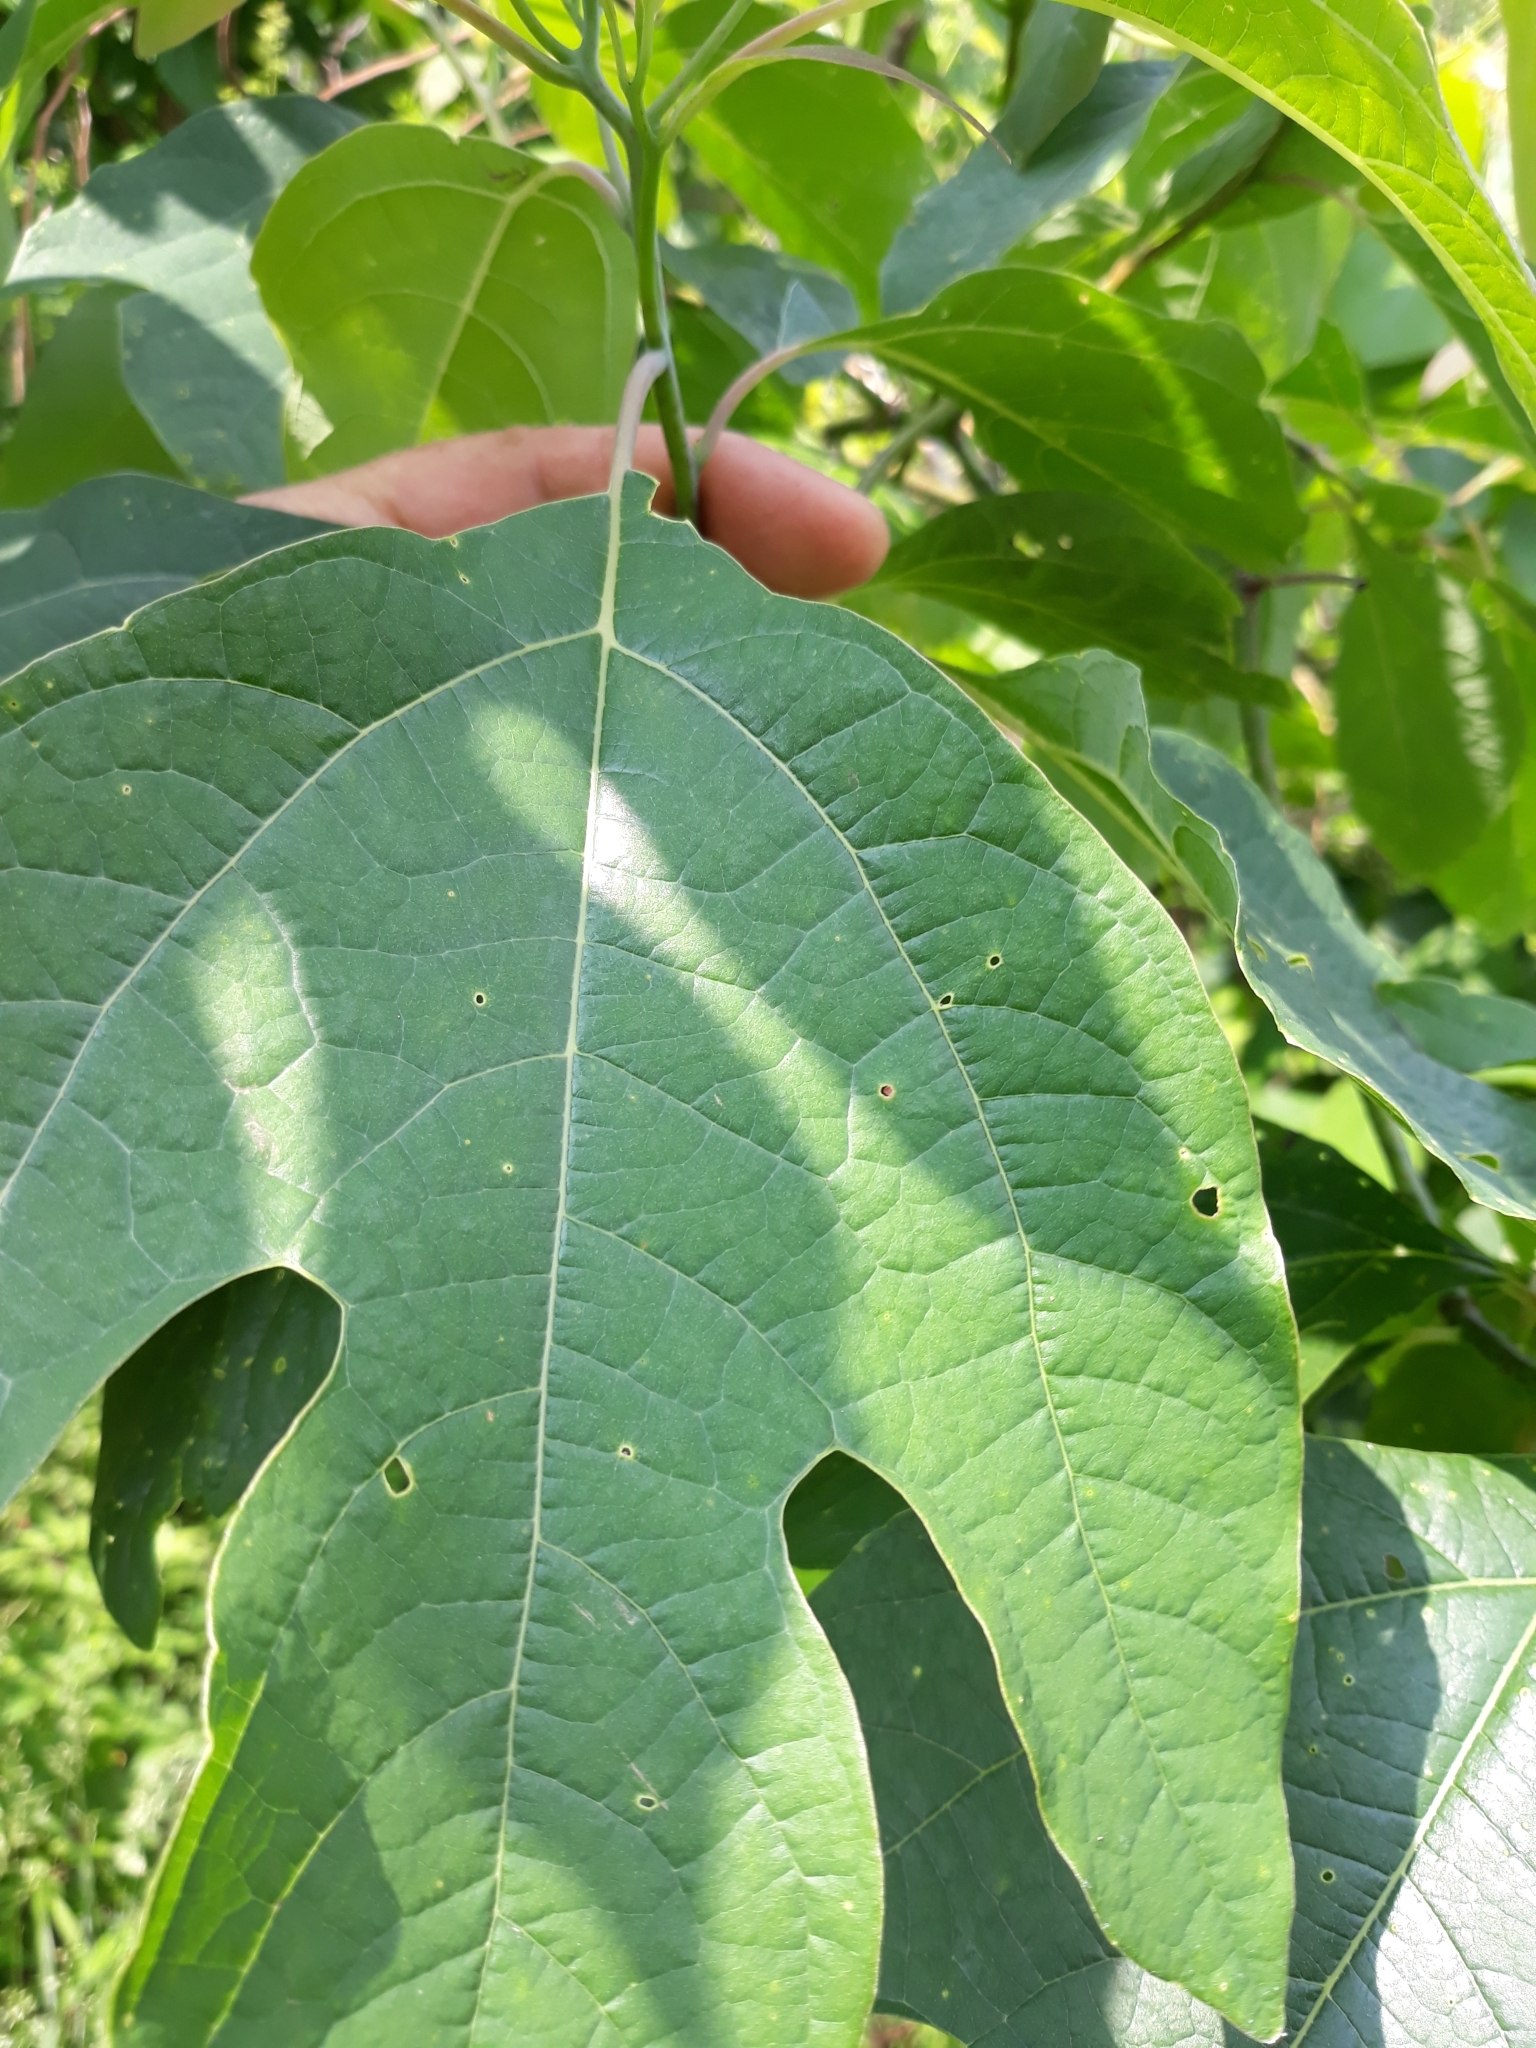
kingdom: Plantae
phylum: Tracheophyta
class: Magnoliopsida
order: Laurales
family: Lauraceae
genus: Sassafras
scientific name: Sassafras albidum
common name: Sassafras
